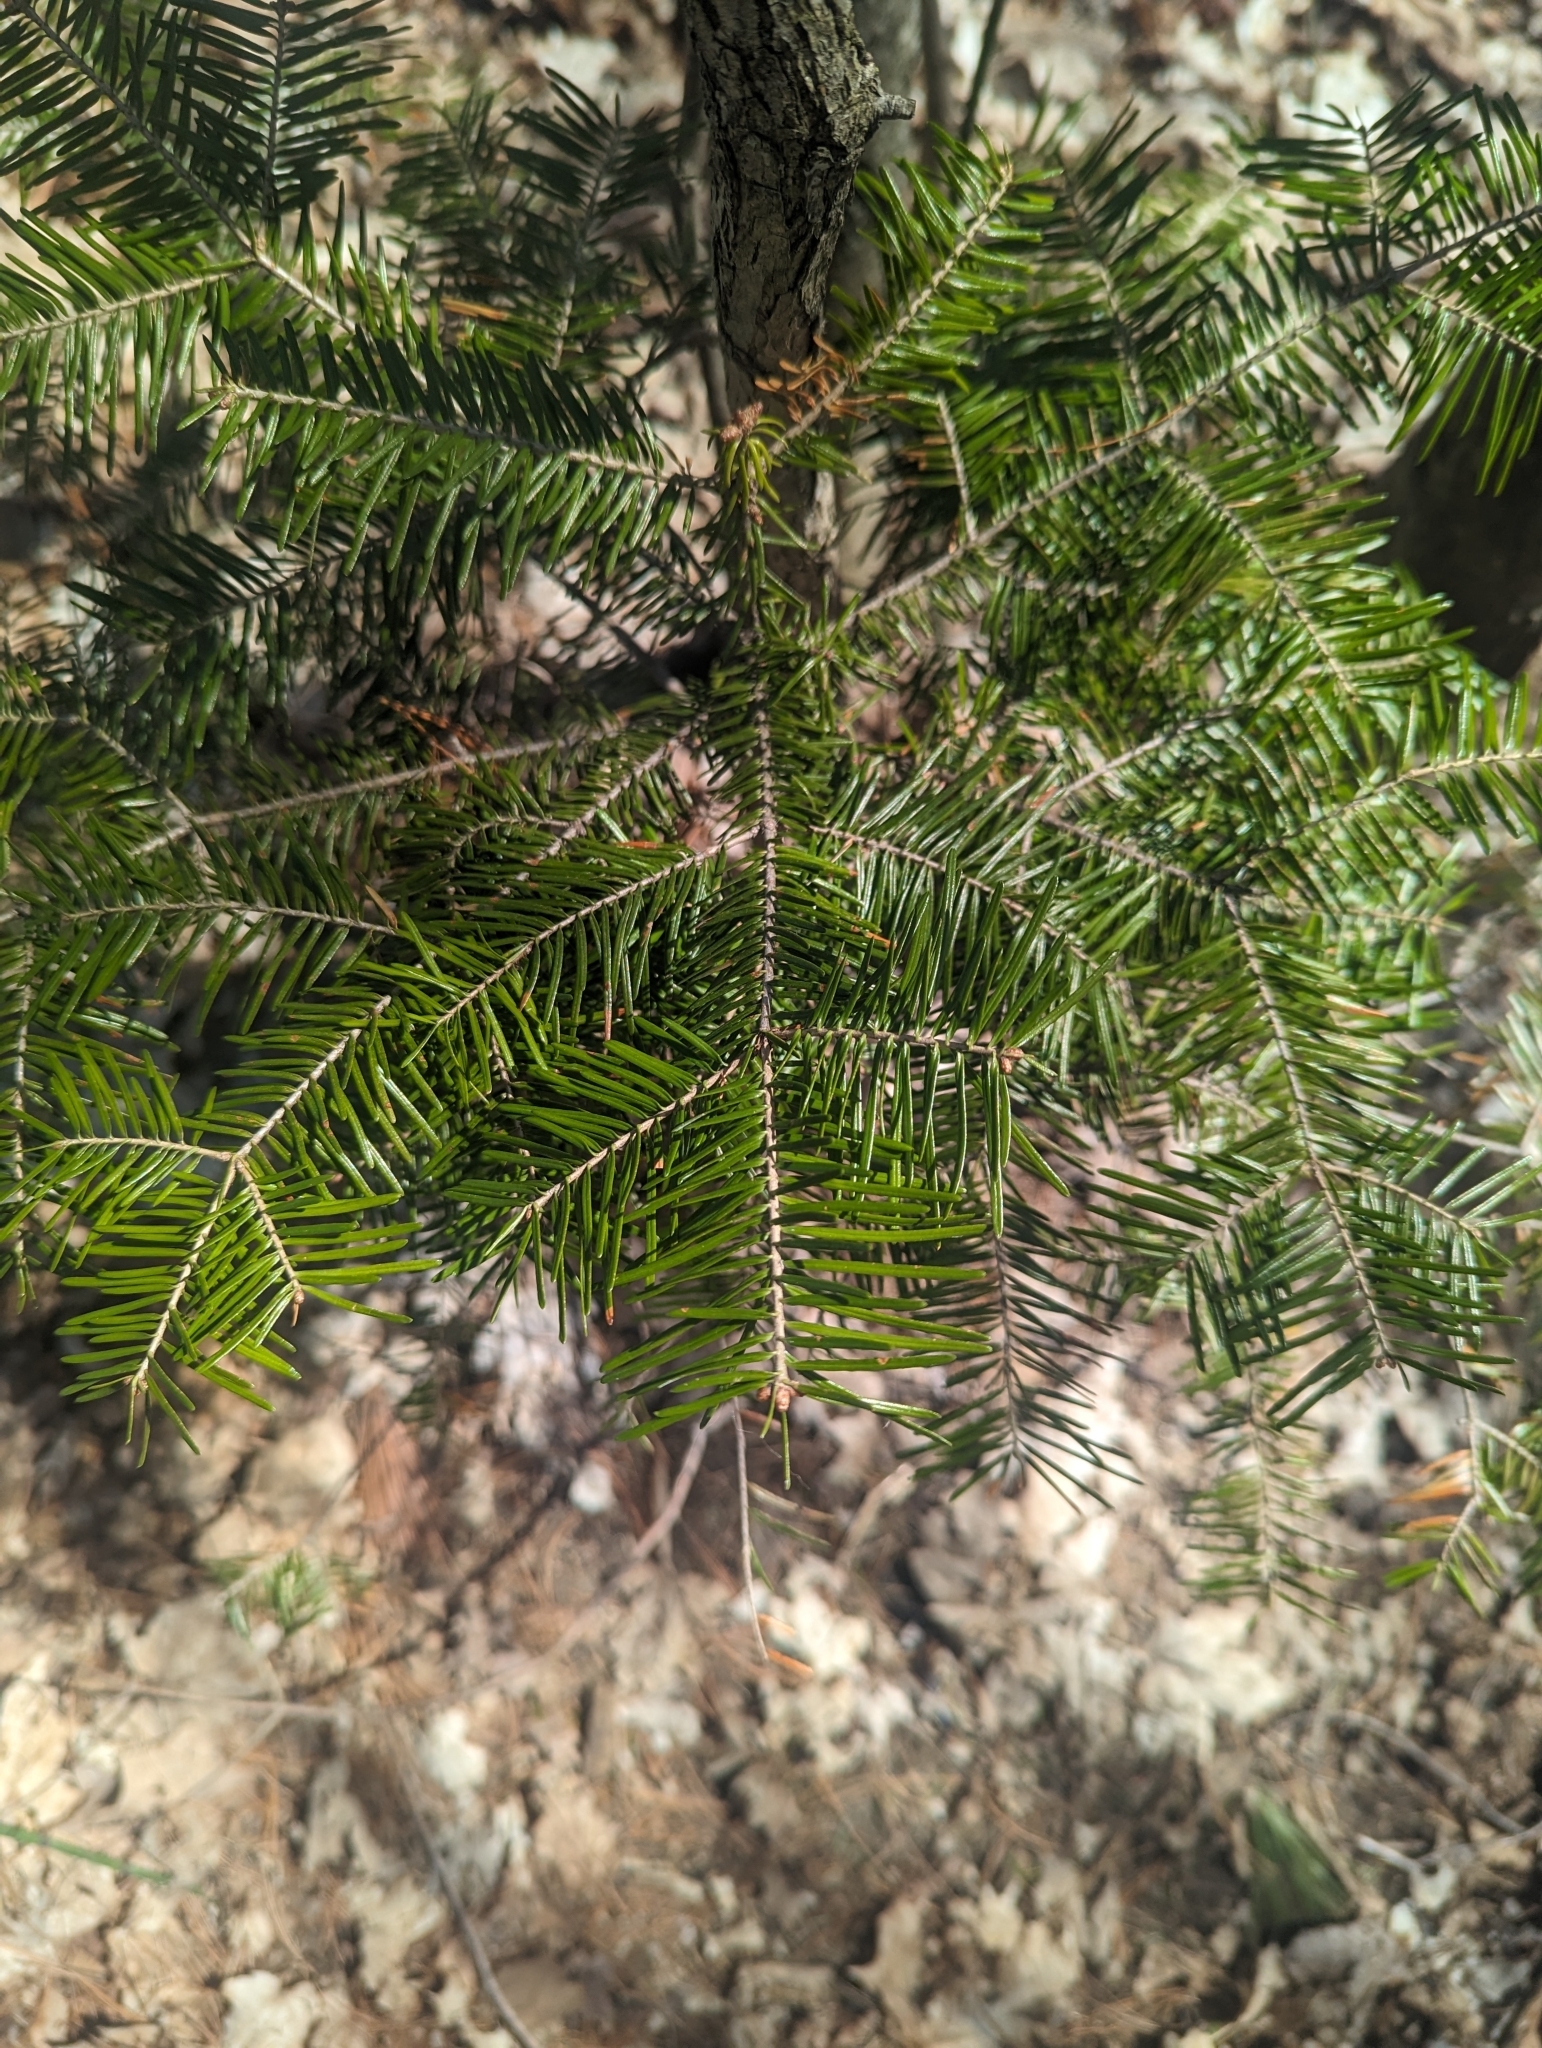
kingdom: Plantae
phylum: Tracheophyta
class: Pinopsida
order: Pinales
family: Pinaceae
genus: Abies
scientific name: Abies balsamea
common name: Balsam fir
